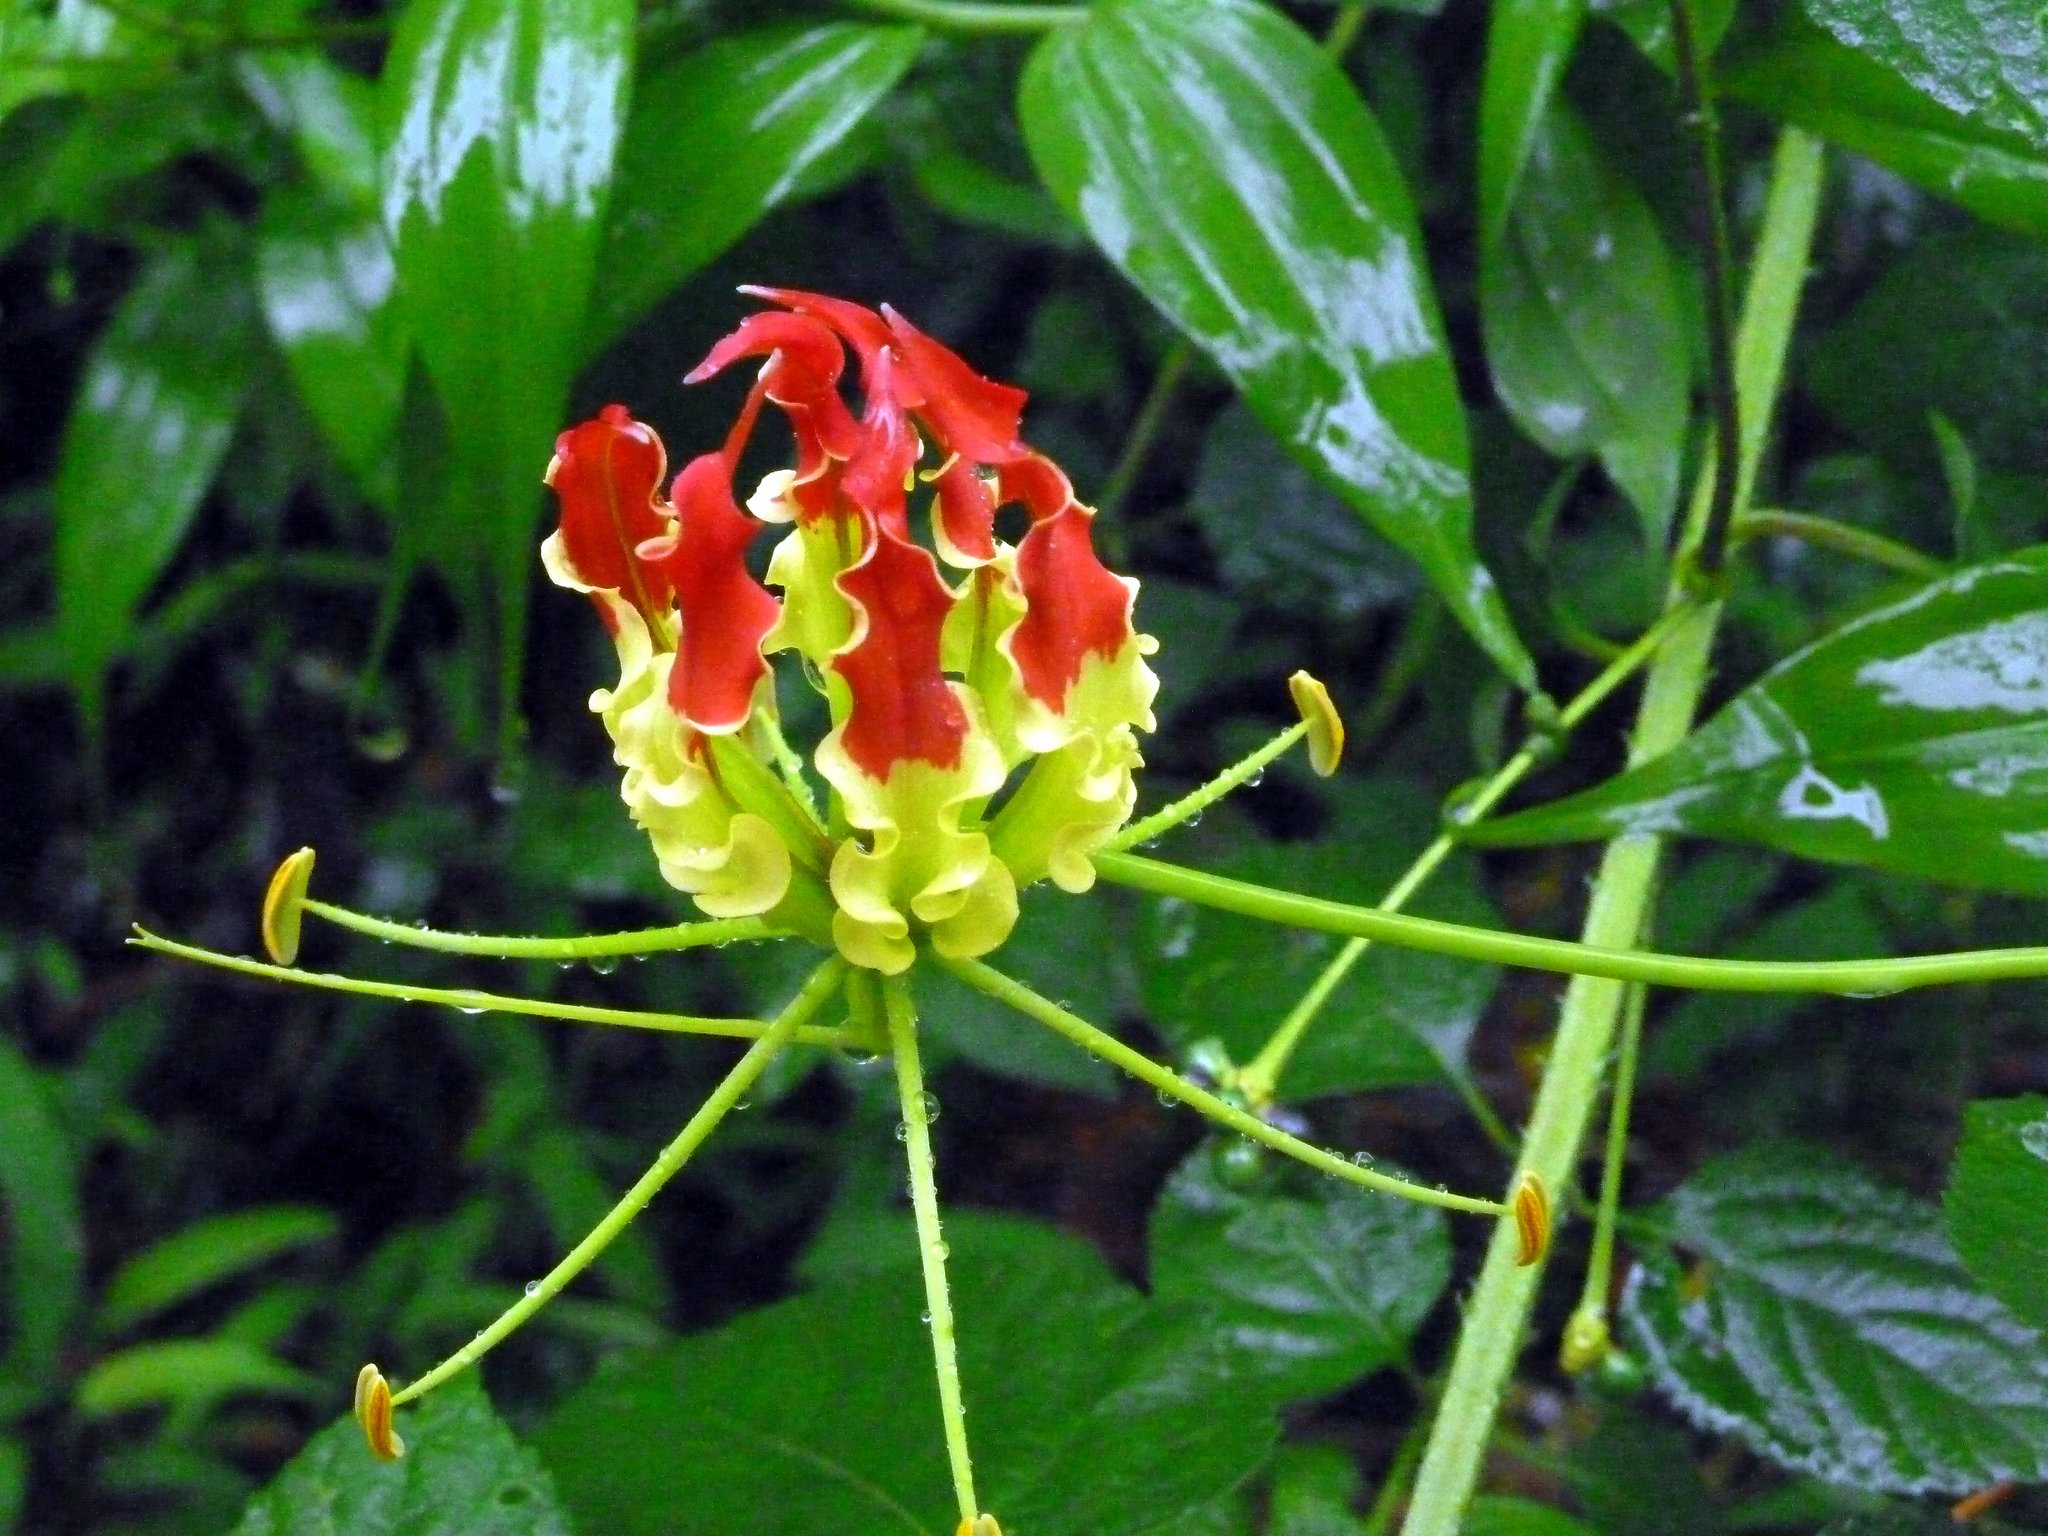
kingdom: Plantae
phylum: Tracheophyta
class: Liliopsida
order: Liliales
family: Colchicaceae
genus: Gloriosa
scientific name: Gloriosa superba
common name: Flame lily
